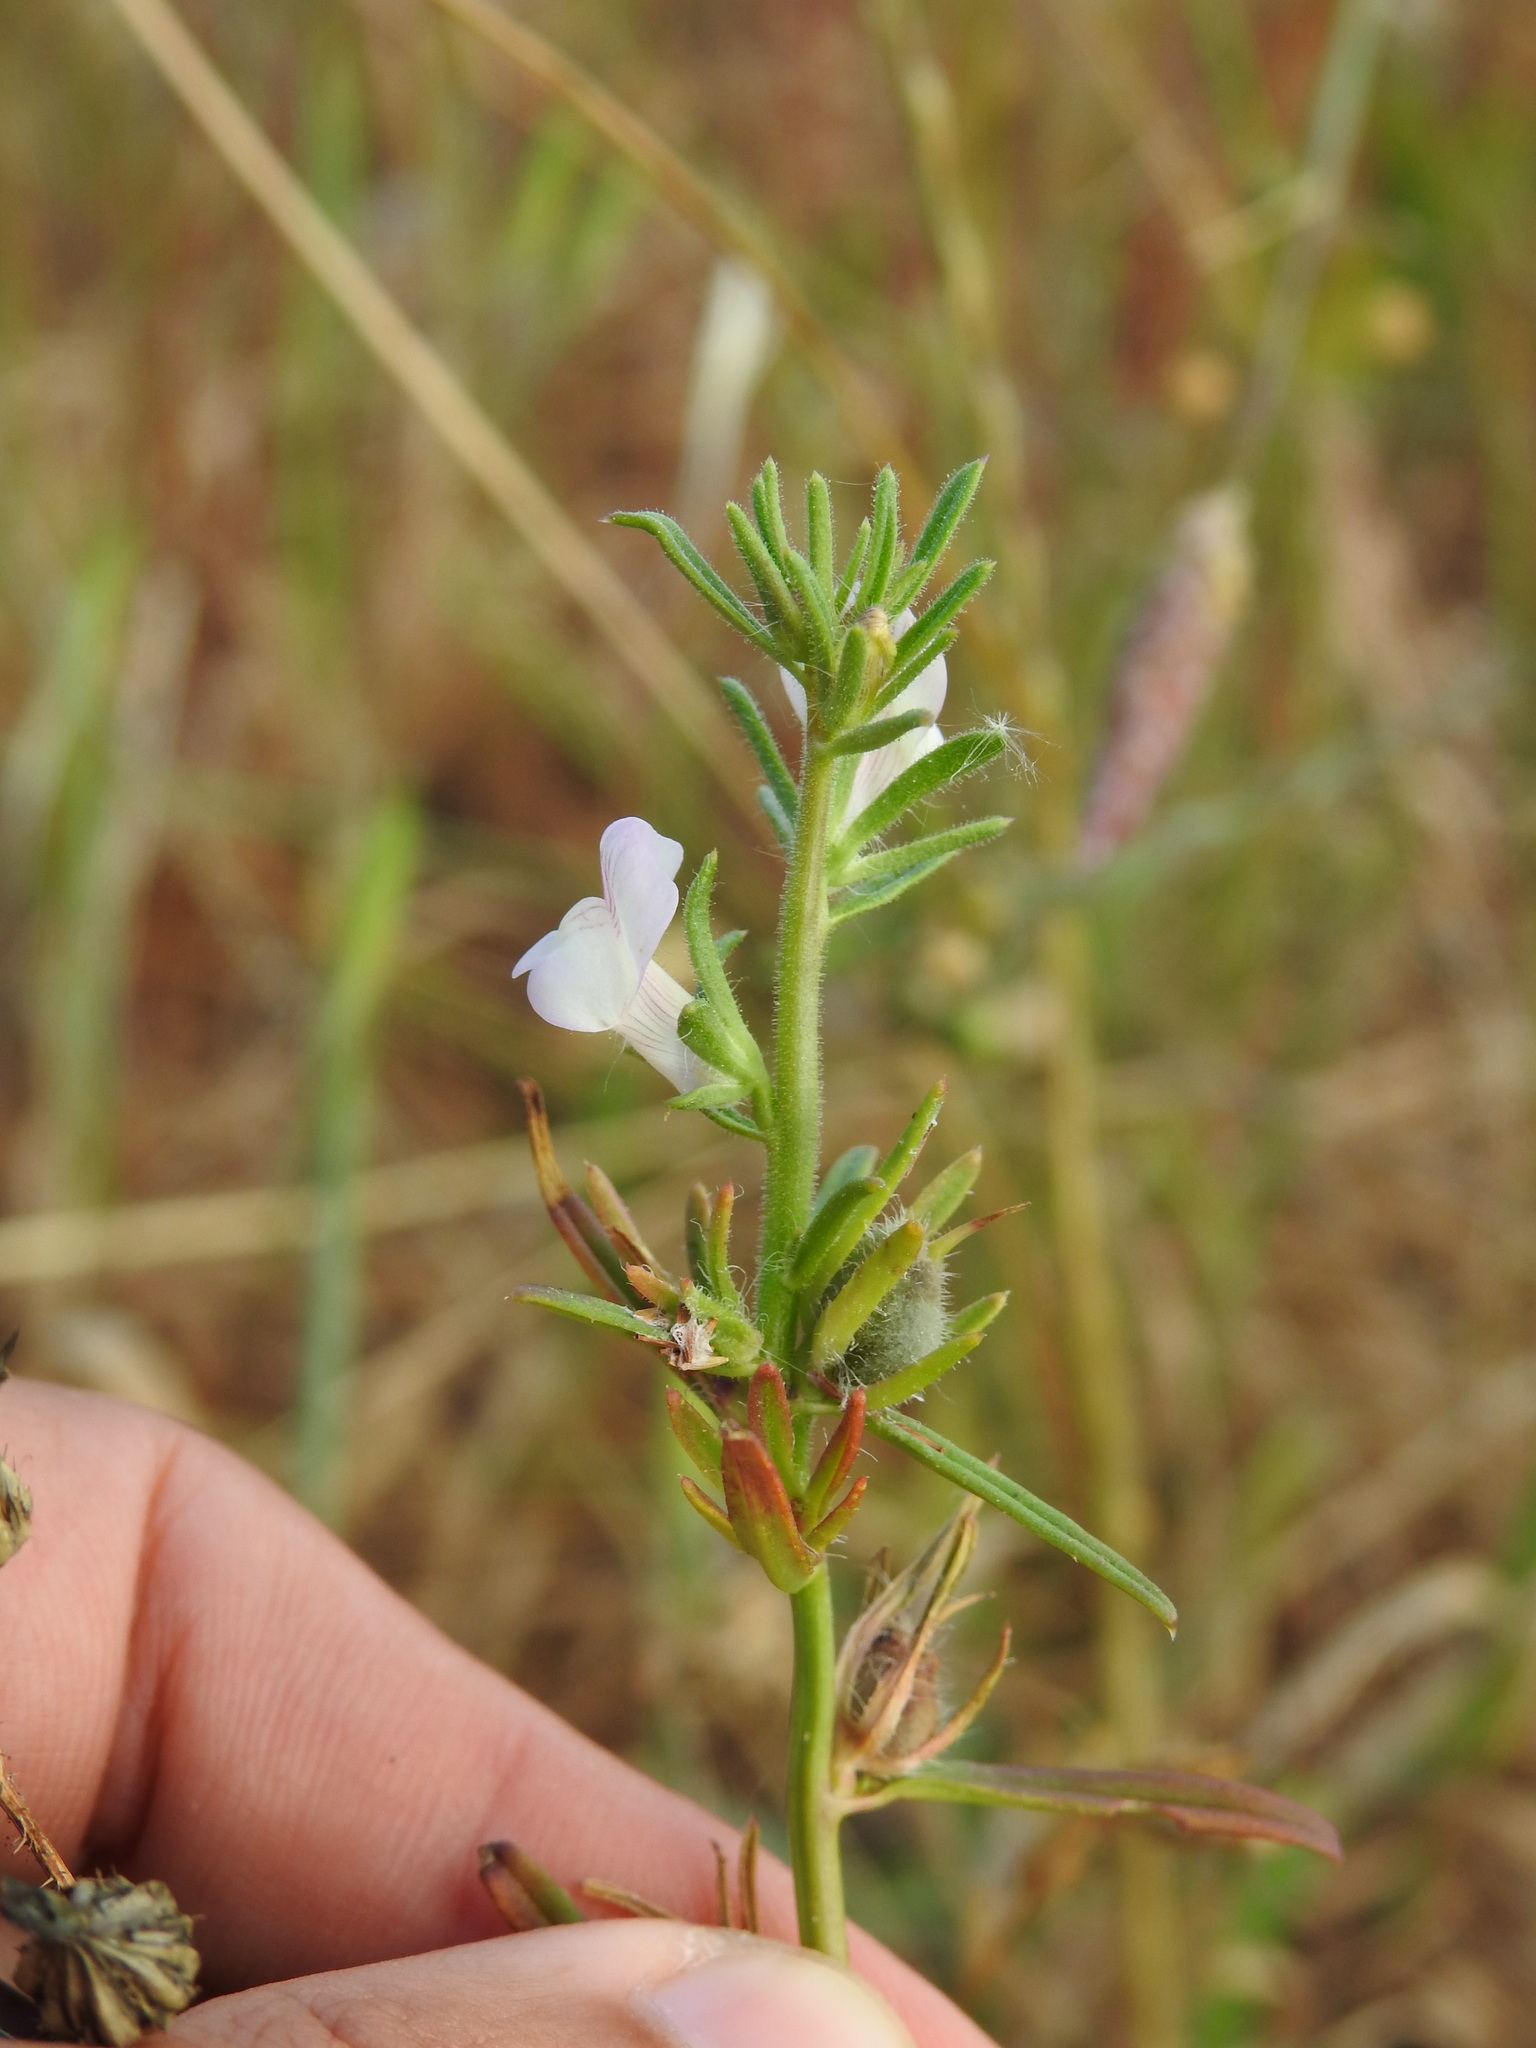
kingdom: Plantae
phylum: Tracheophyta
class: Magnoliopsida
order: Lamiales
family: Plantaginaceae
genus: Misopates
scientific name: Misopates orontium
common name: Weasel's-snout
